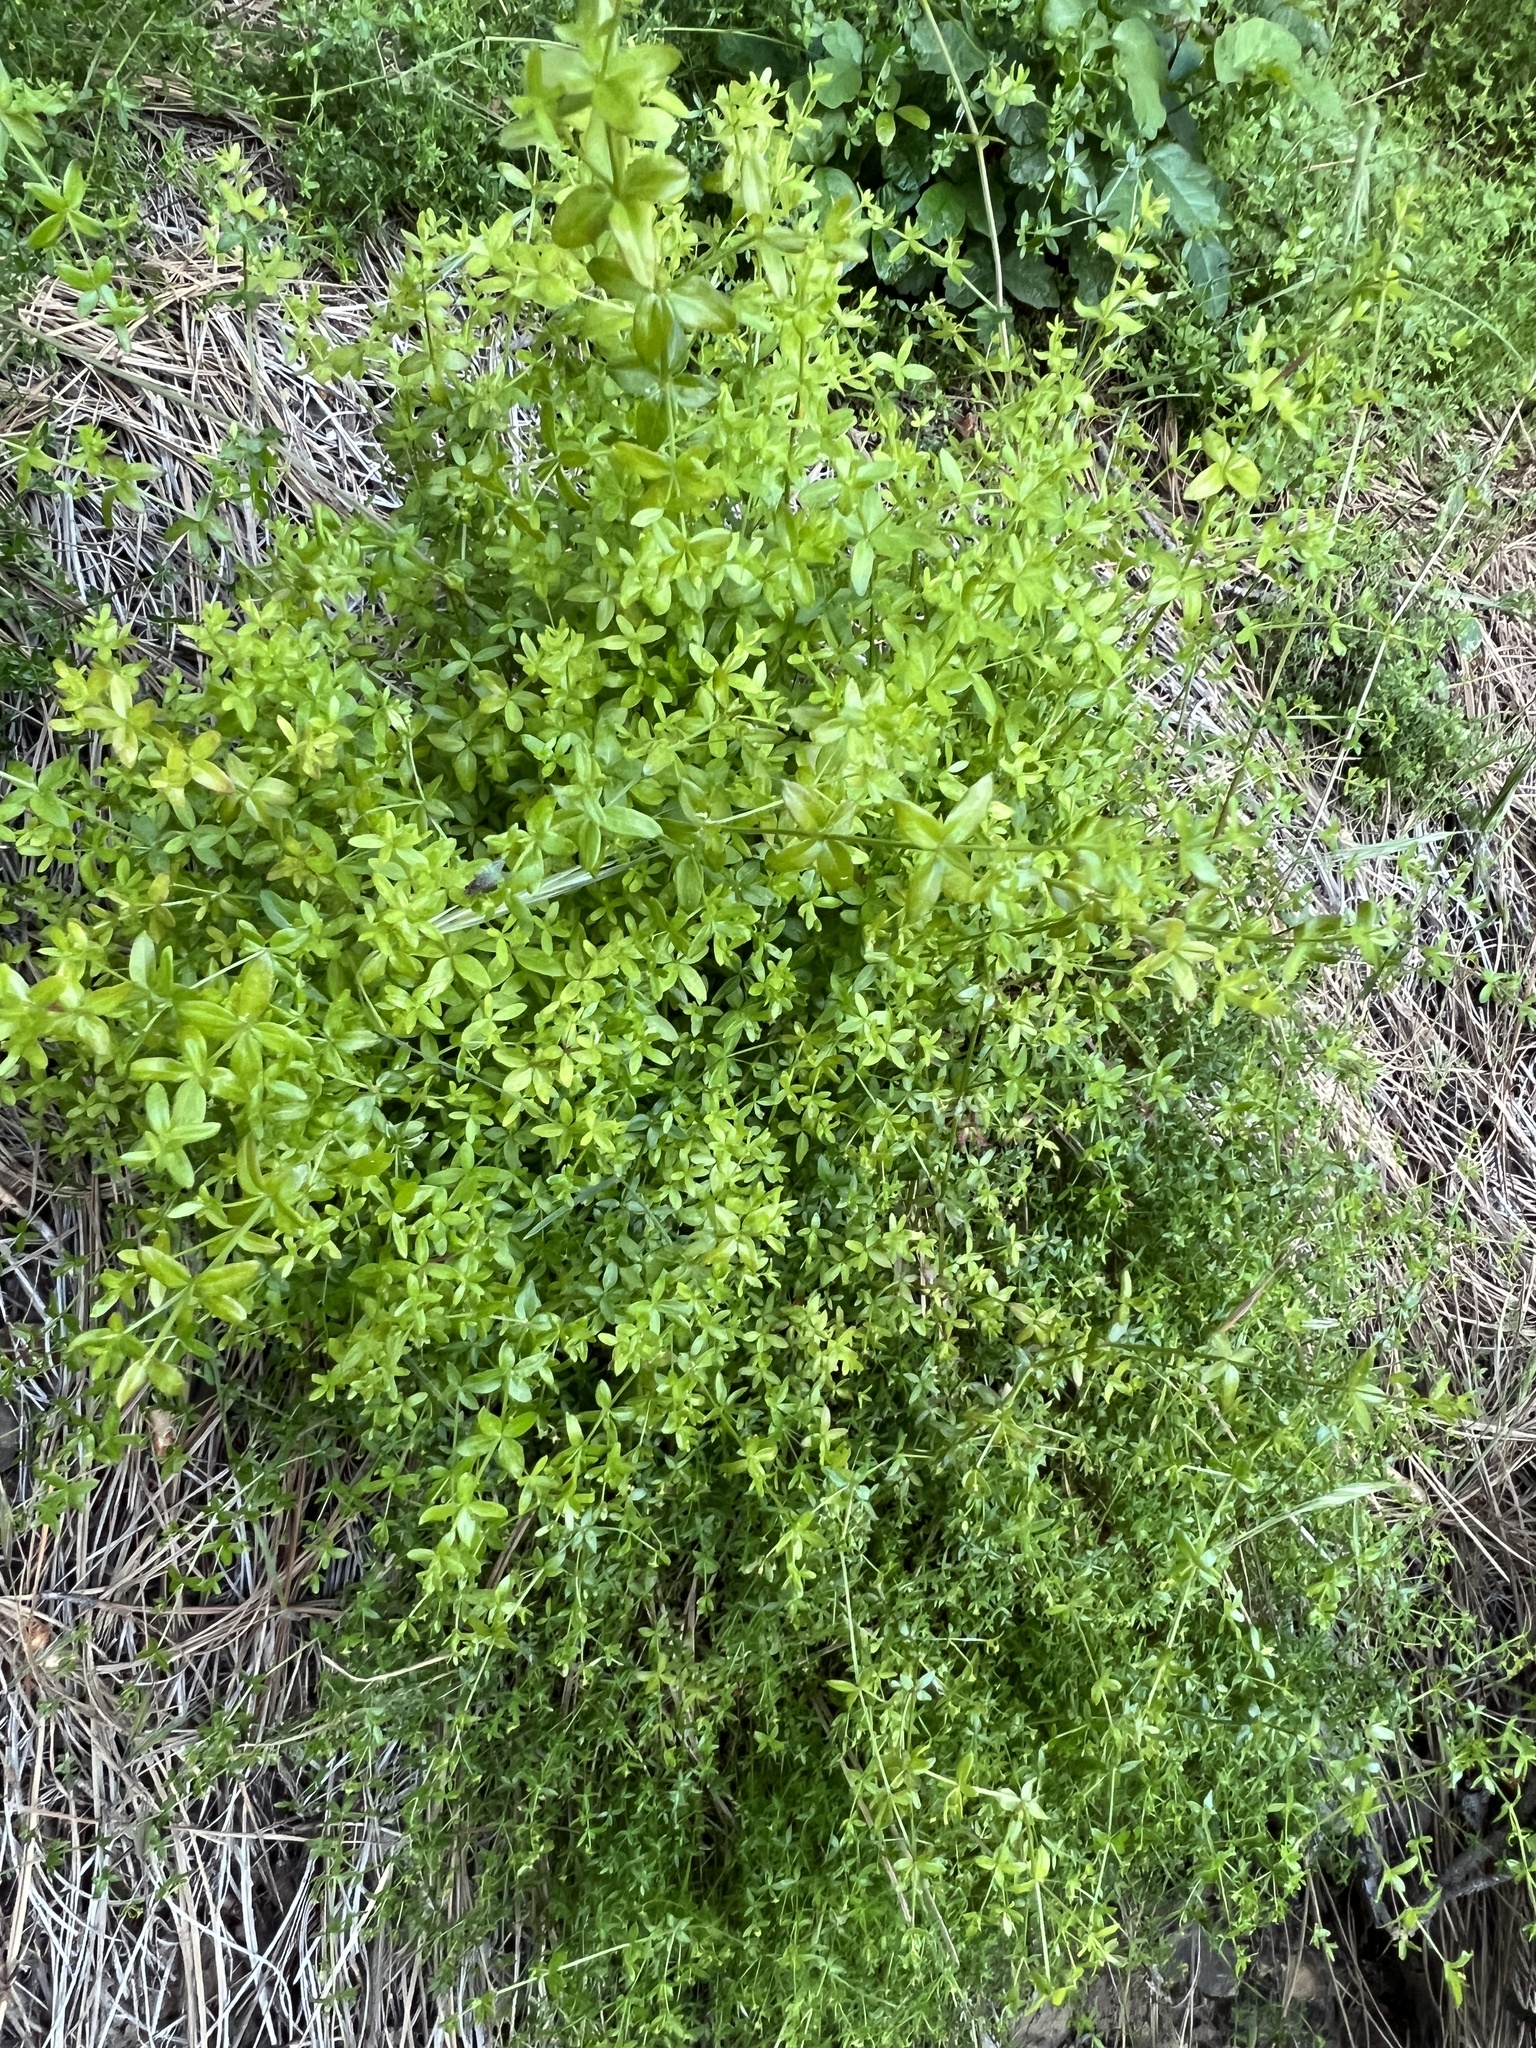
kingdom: Plantae
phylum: Tracheophyta
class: Magnoliopsida
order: Gentianales
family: Rubiaceae
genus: Galium
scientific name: Galium porrigens
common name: Climbing bedstraw
